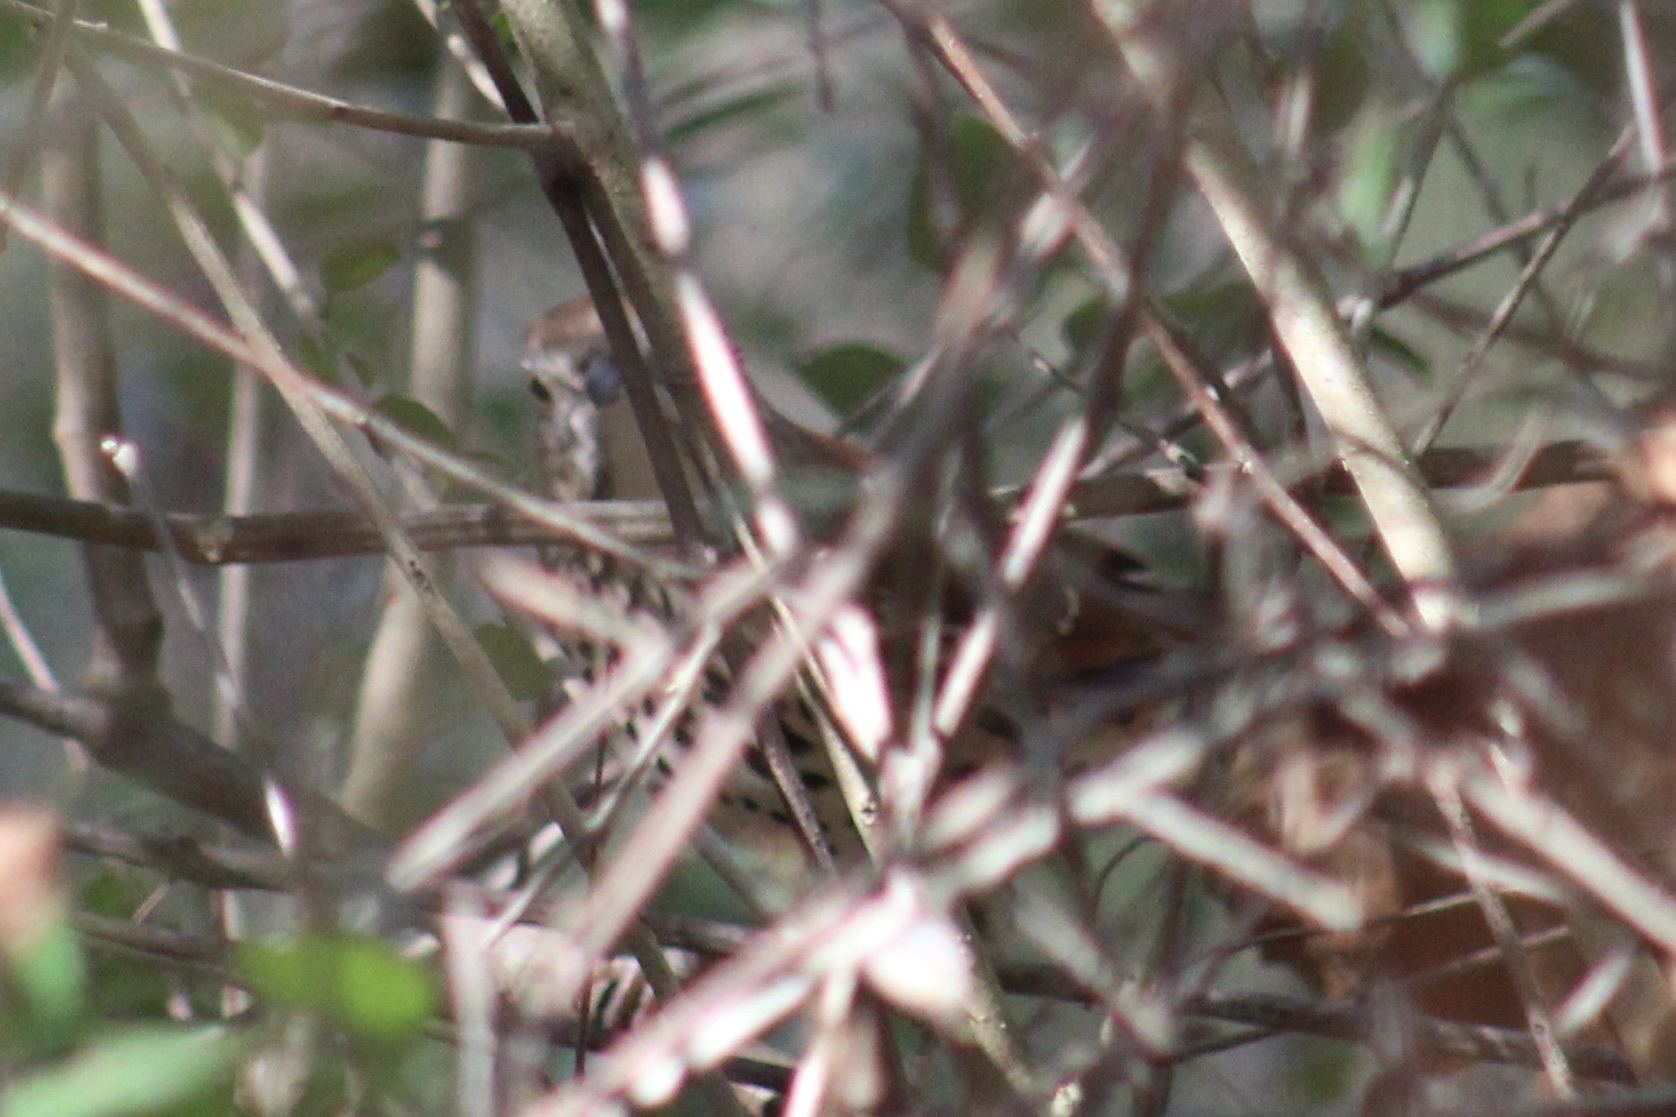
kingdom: Animalia
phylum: Chordata
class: Aves
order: Passeriformes
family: Mimidae
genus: Toxostoma
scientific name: Toxostoma rufum
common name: Brown thrasher
